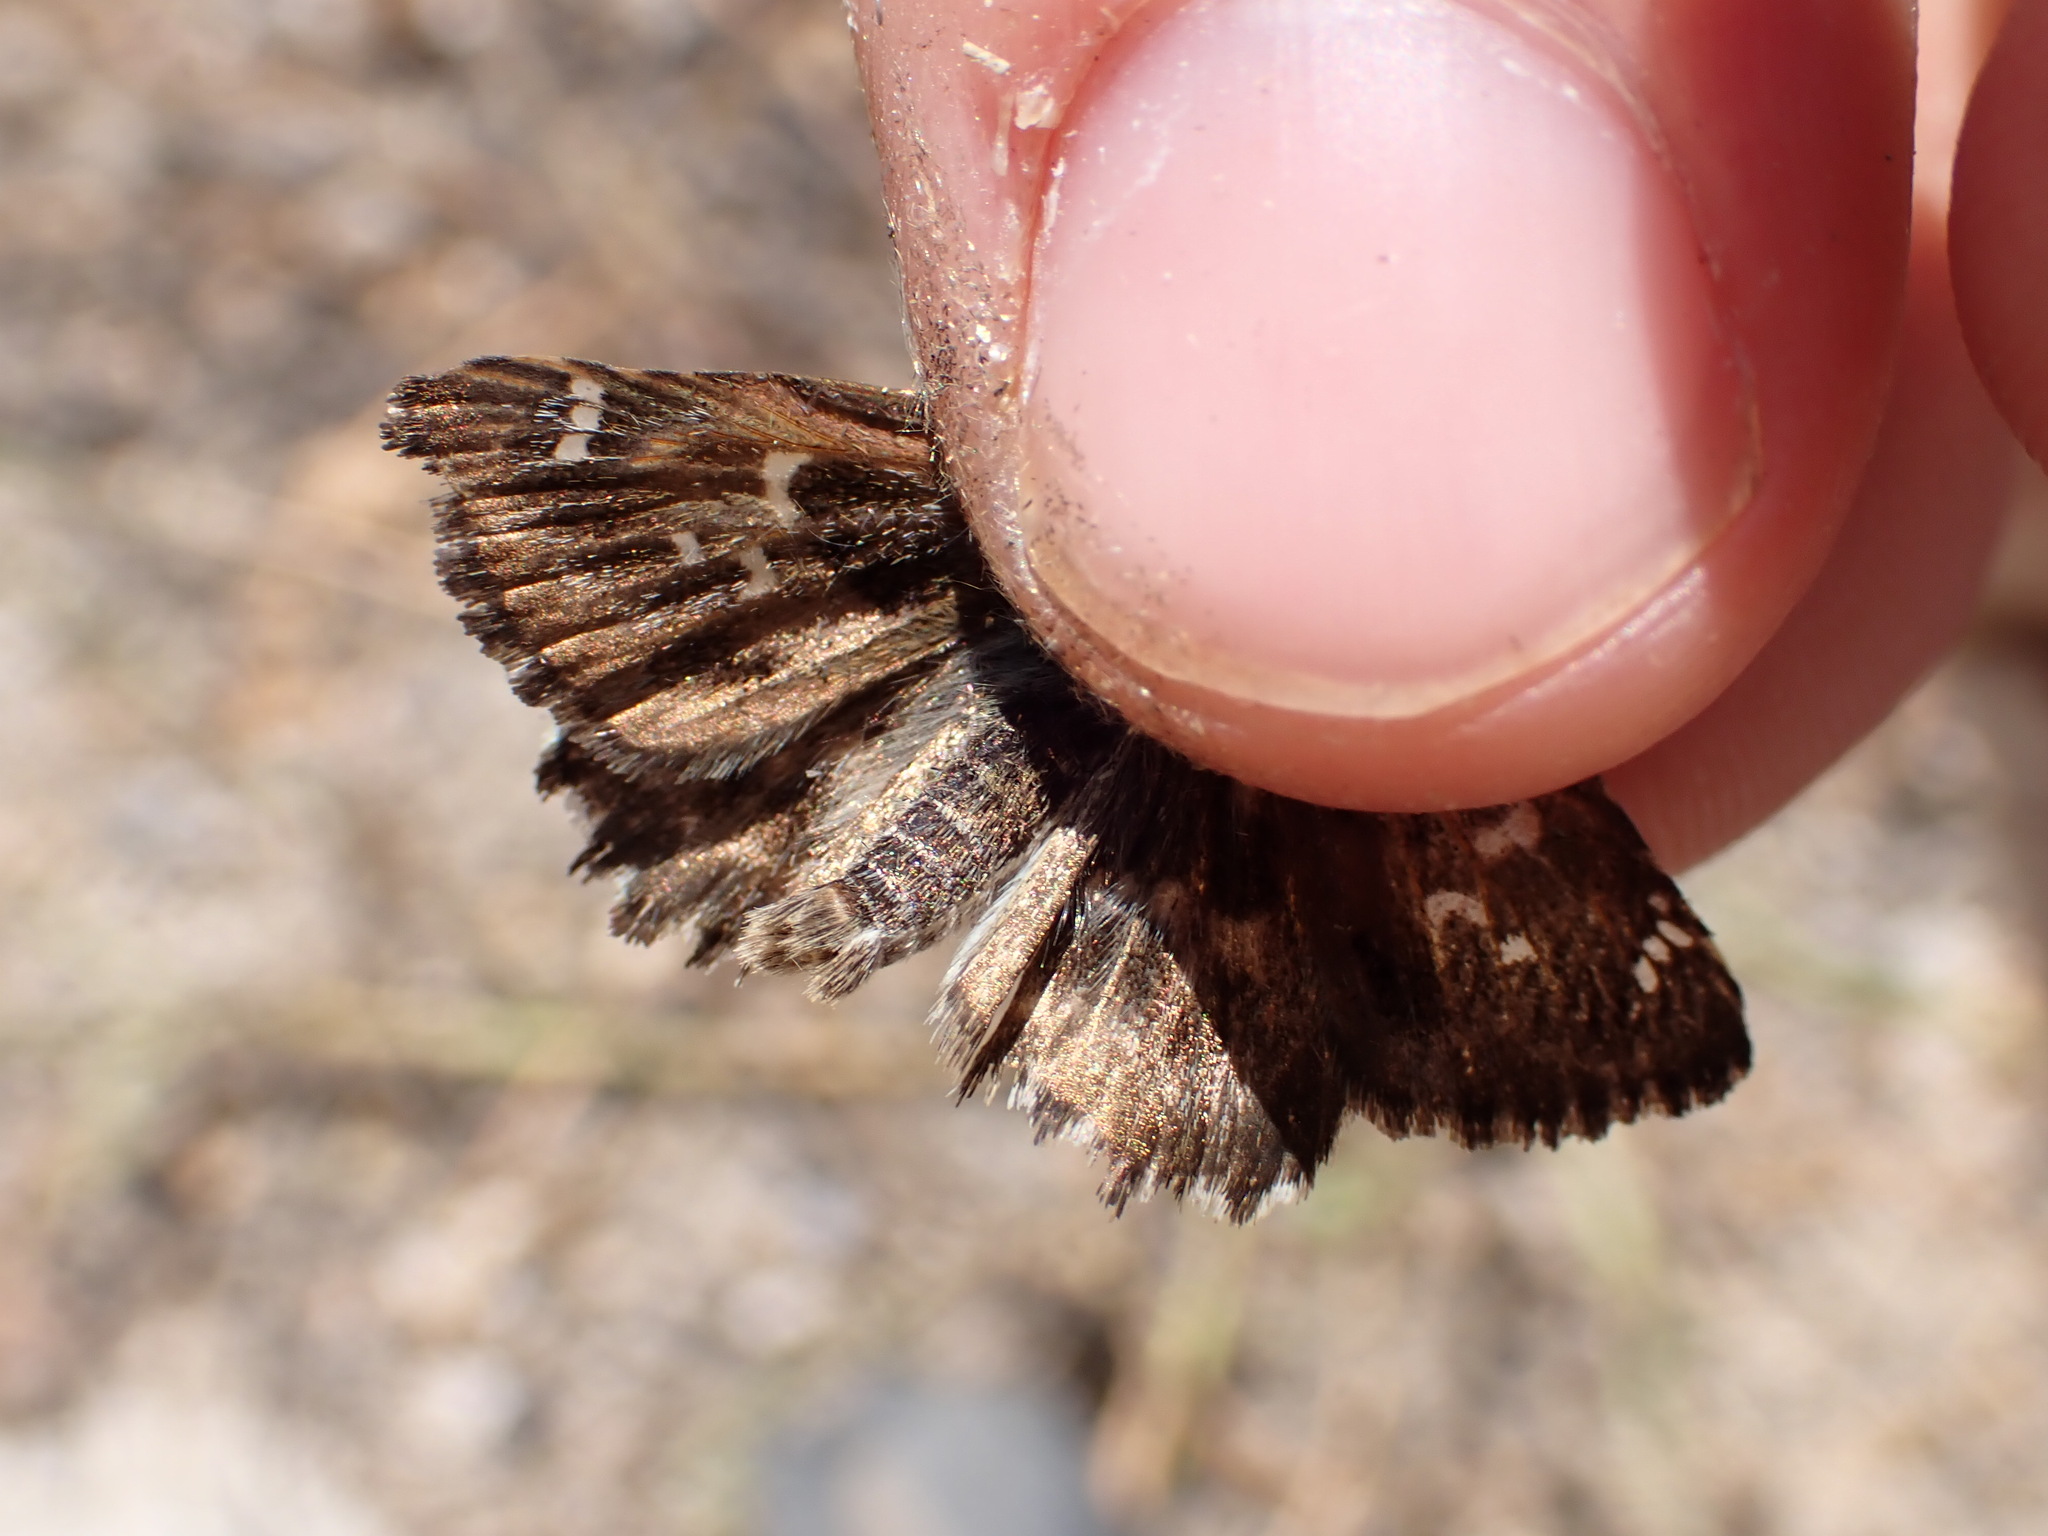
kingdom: Animalia
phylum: Arthropoda
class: Insecta
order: Lepidoptera
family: Hesperiidae
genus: Carcharodus
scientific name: Carcharodus alceae
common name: Mallow skipper
